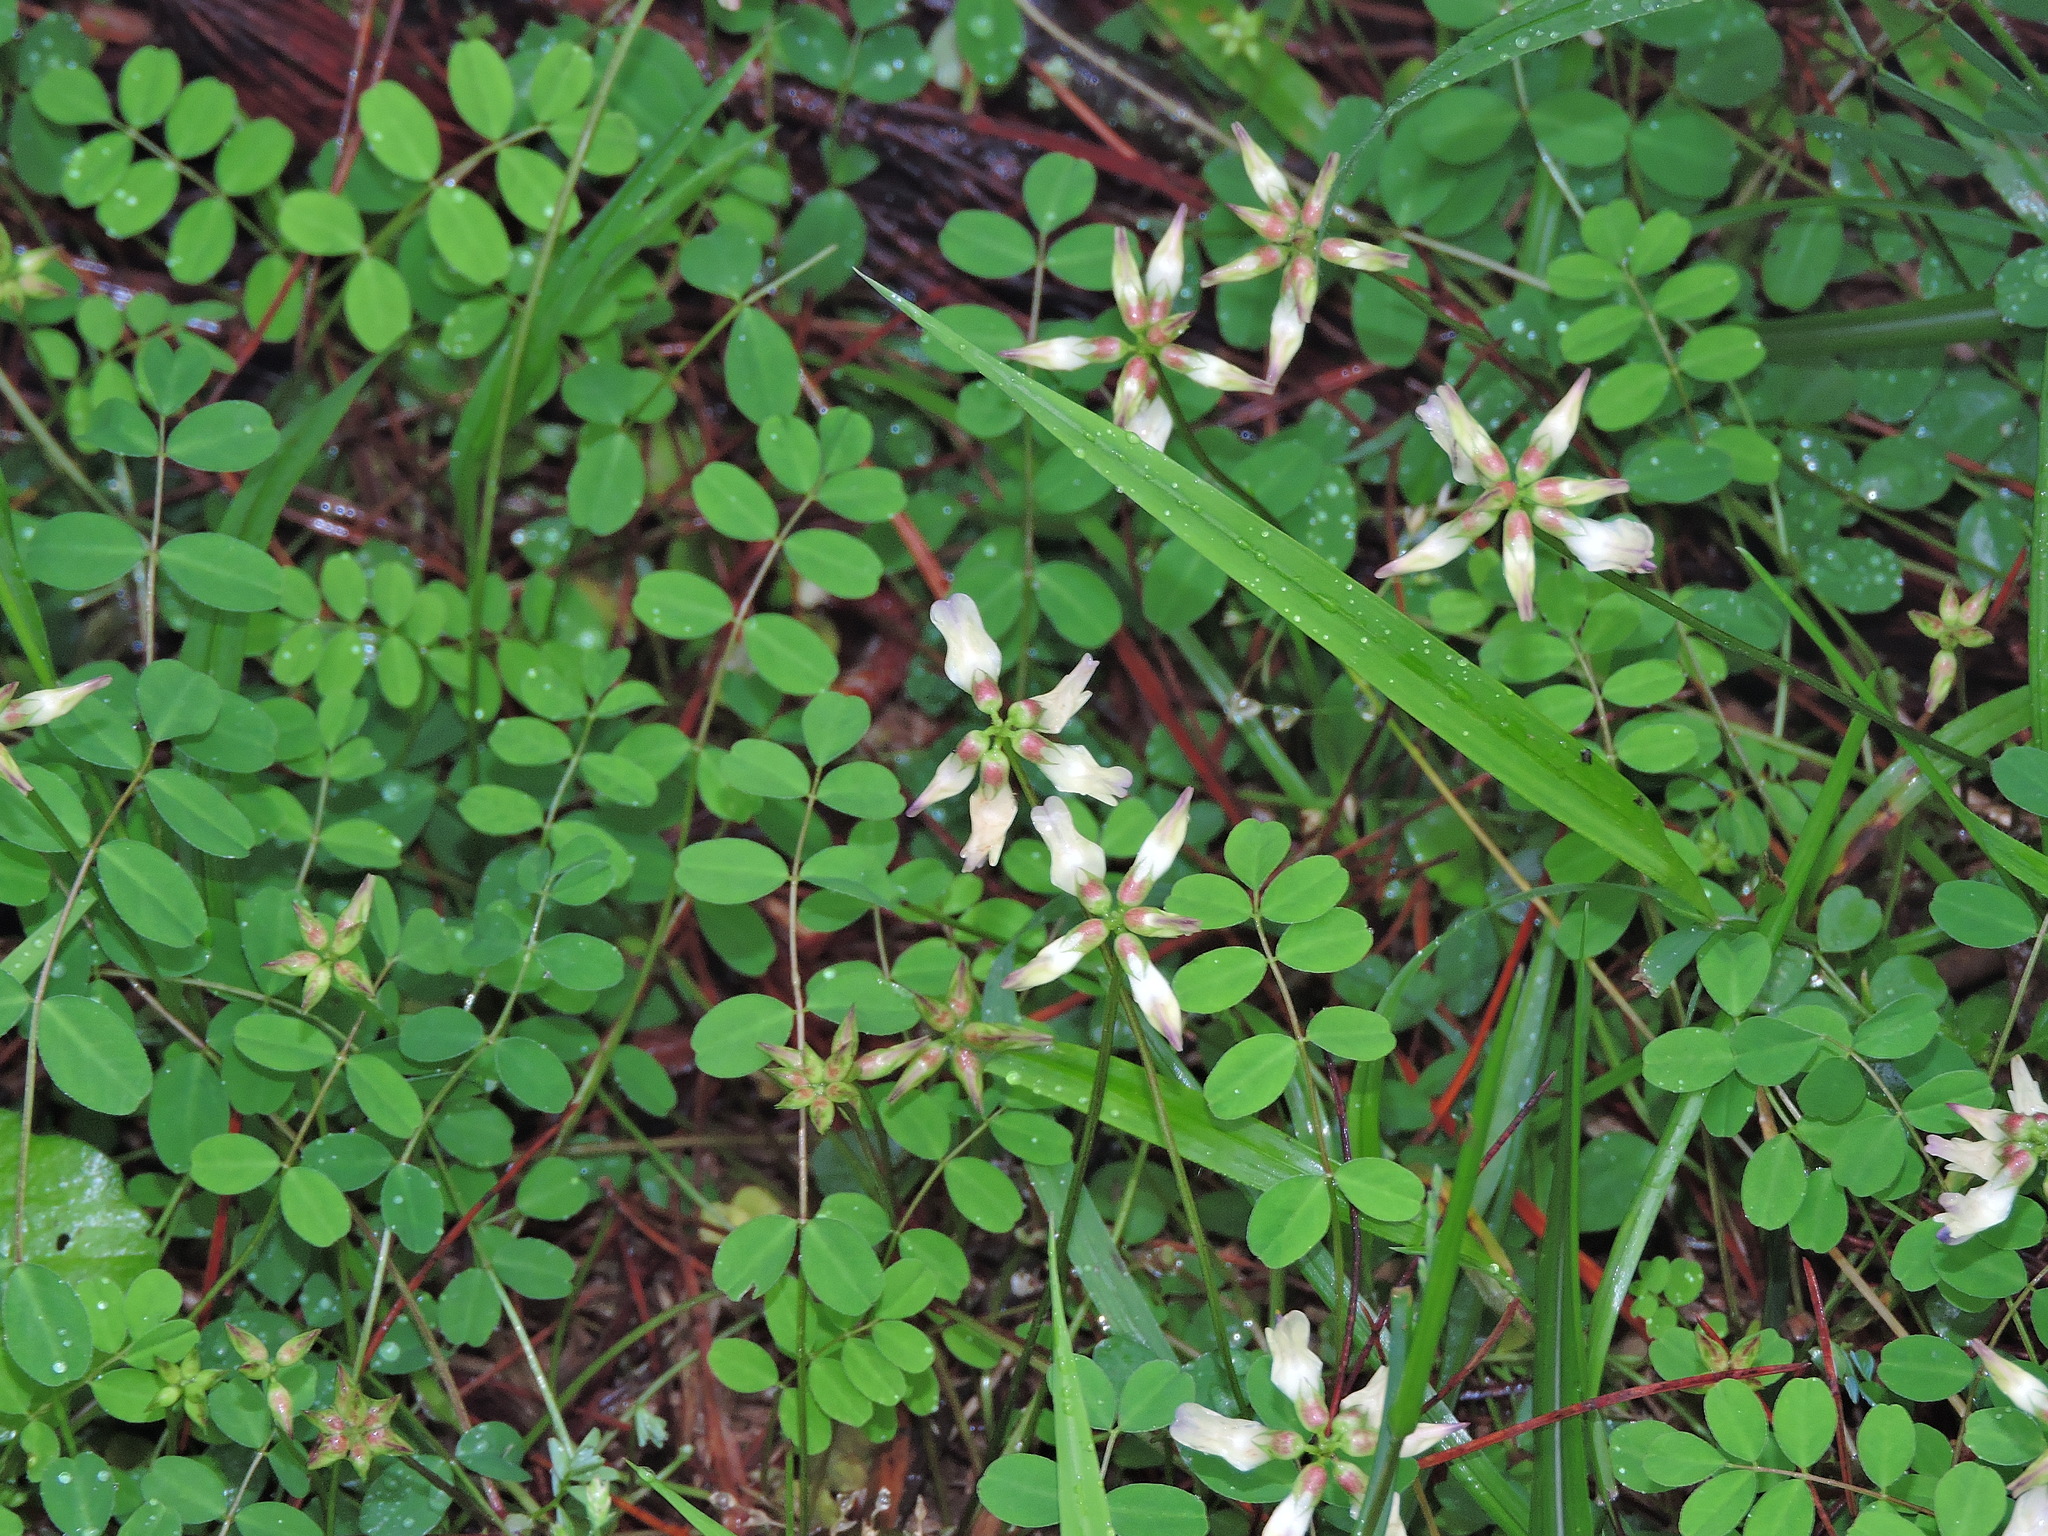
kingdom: Plantae
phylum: Tracheophyta
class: Magnoliopsida
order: Fabales
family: Fabaceae
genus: Astragalus
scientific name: Astragalus nokoensis
